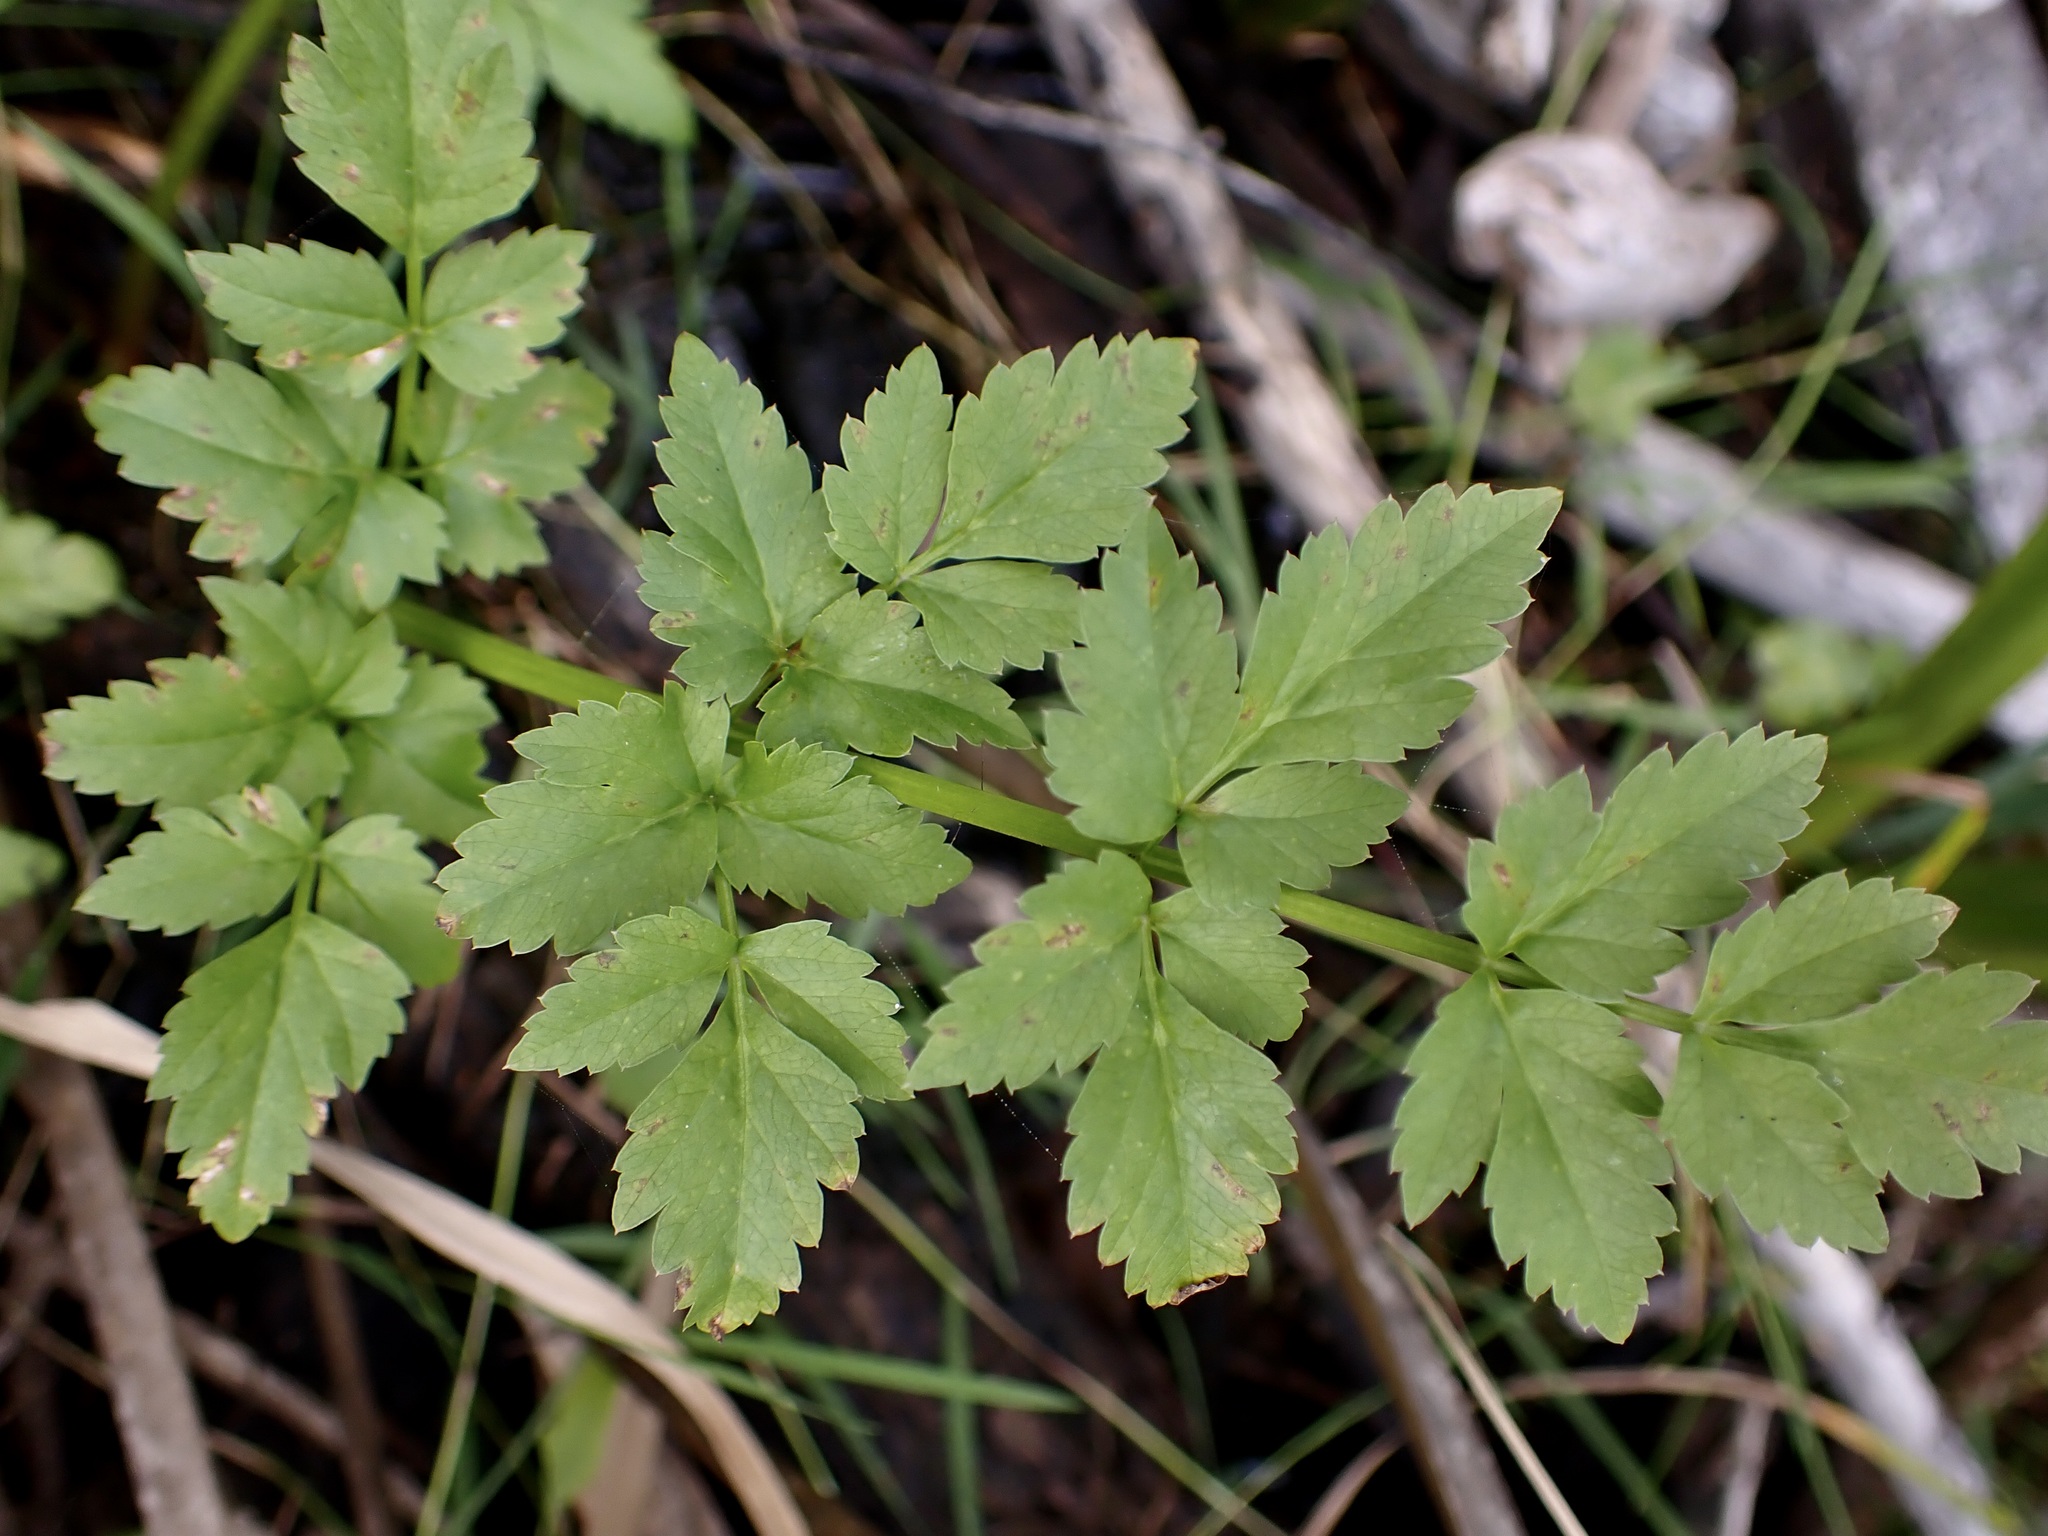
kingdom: Plantae
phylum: Tracheophyta
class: Magnoliopsida
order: Apiales
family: Apiaceae
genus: Oenanthe
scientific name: Oenanthe sarmentosa
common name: American water-parsley
